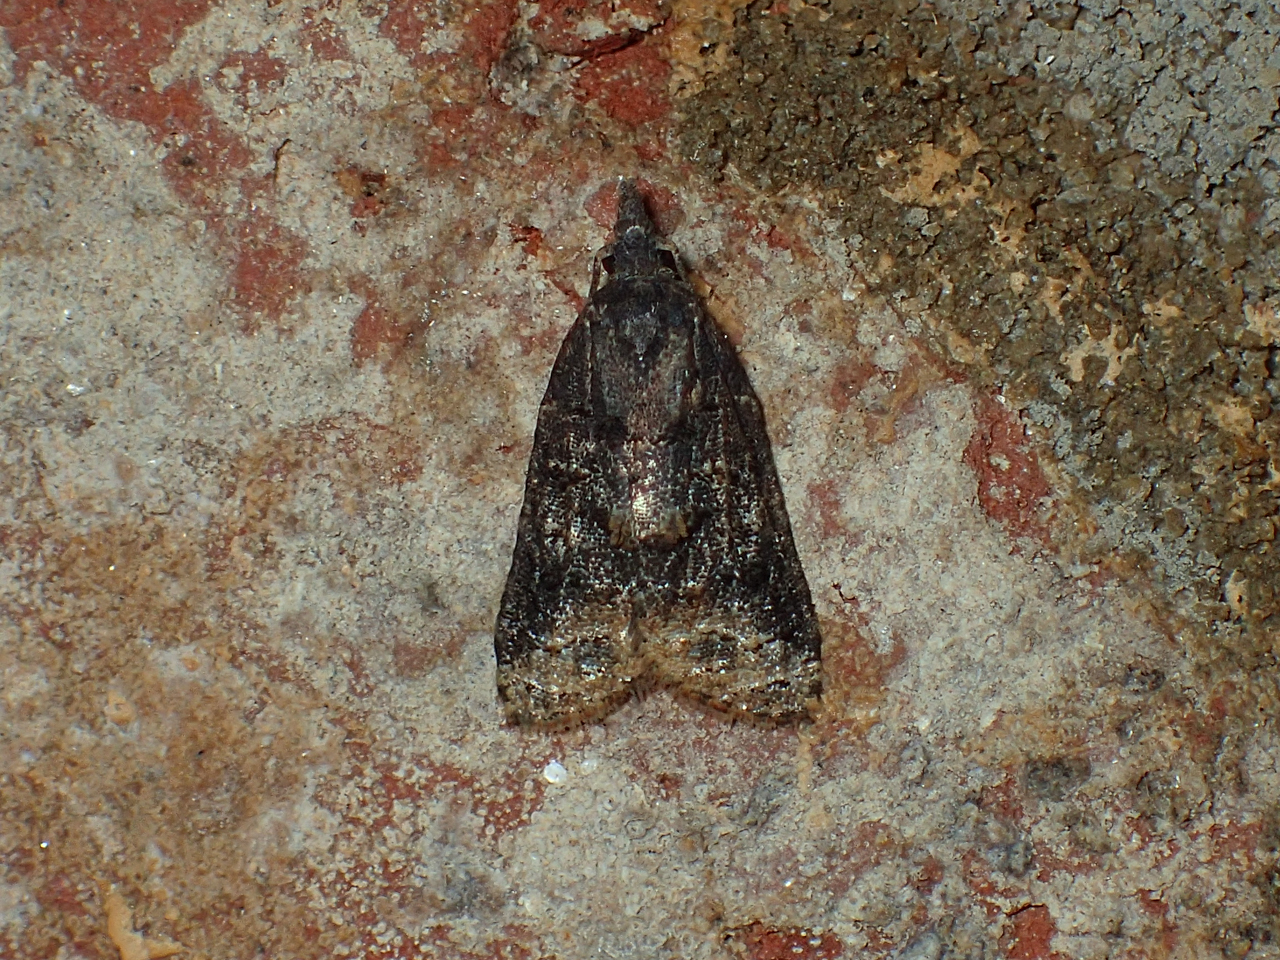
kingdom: Animalia
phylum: Arthropoda
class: Insecta
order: Lepidoptera
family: Tortricidae
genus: Platynota
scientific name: Platynota idaeusalis
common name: Tufted apple bud moth
